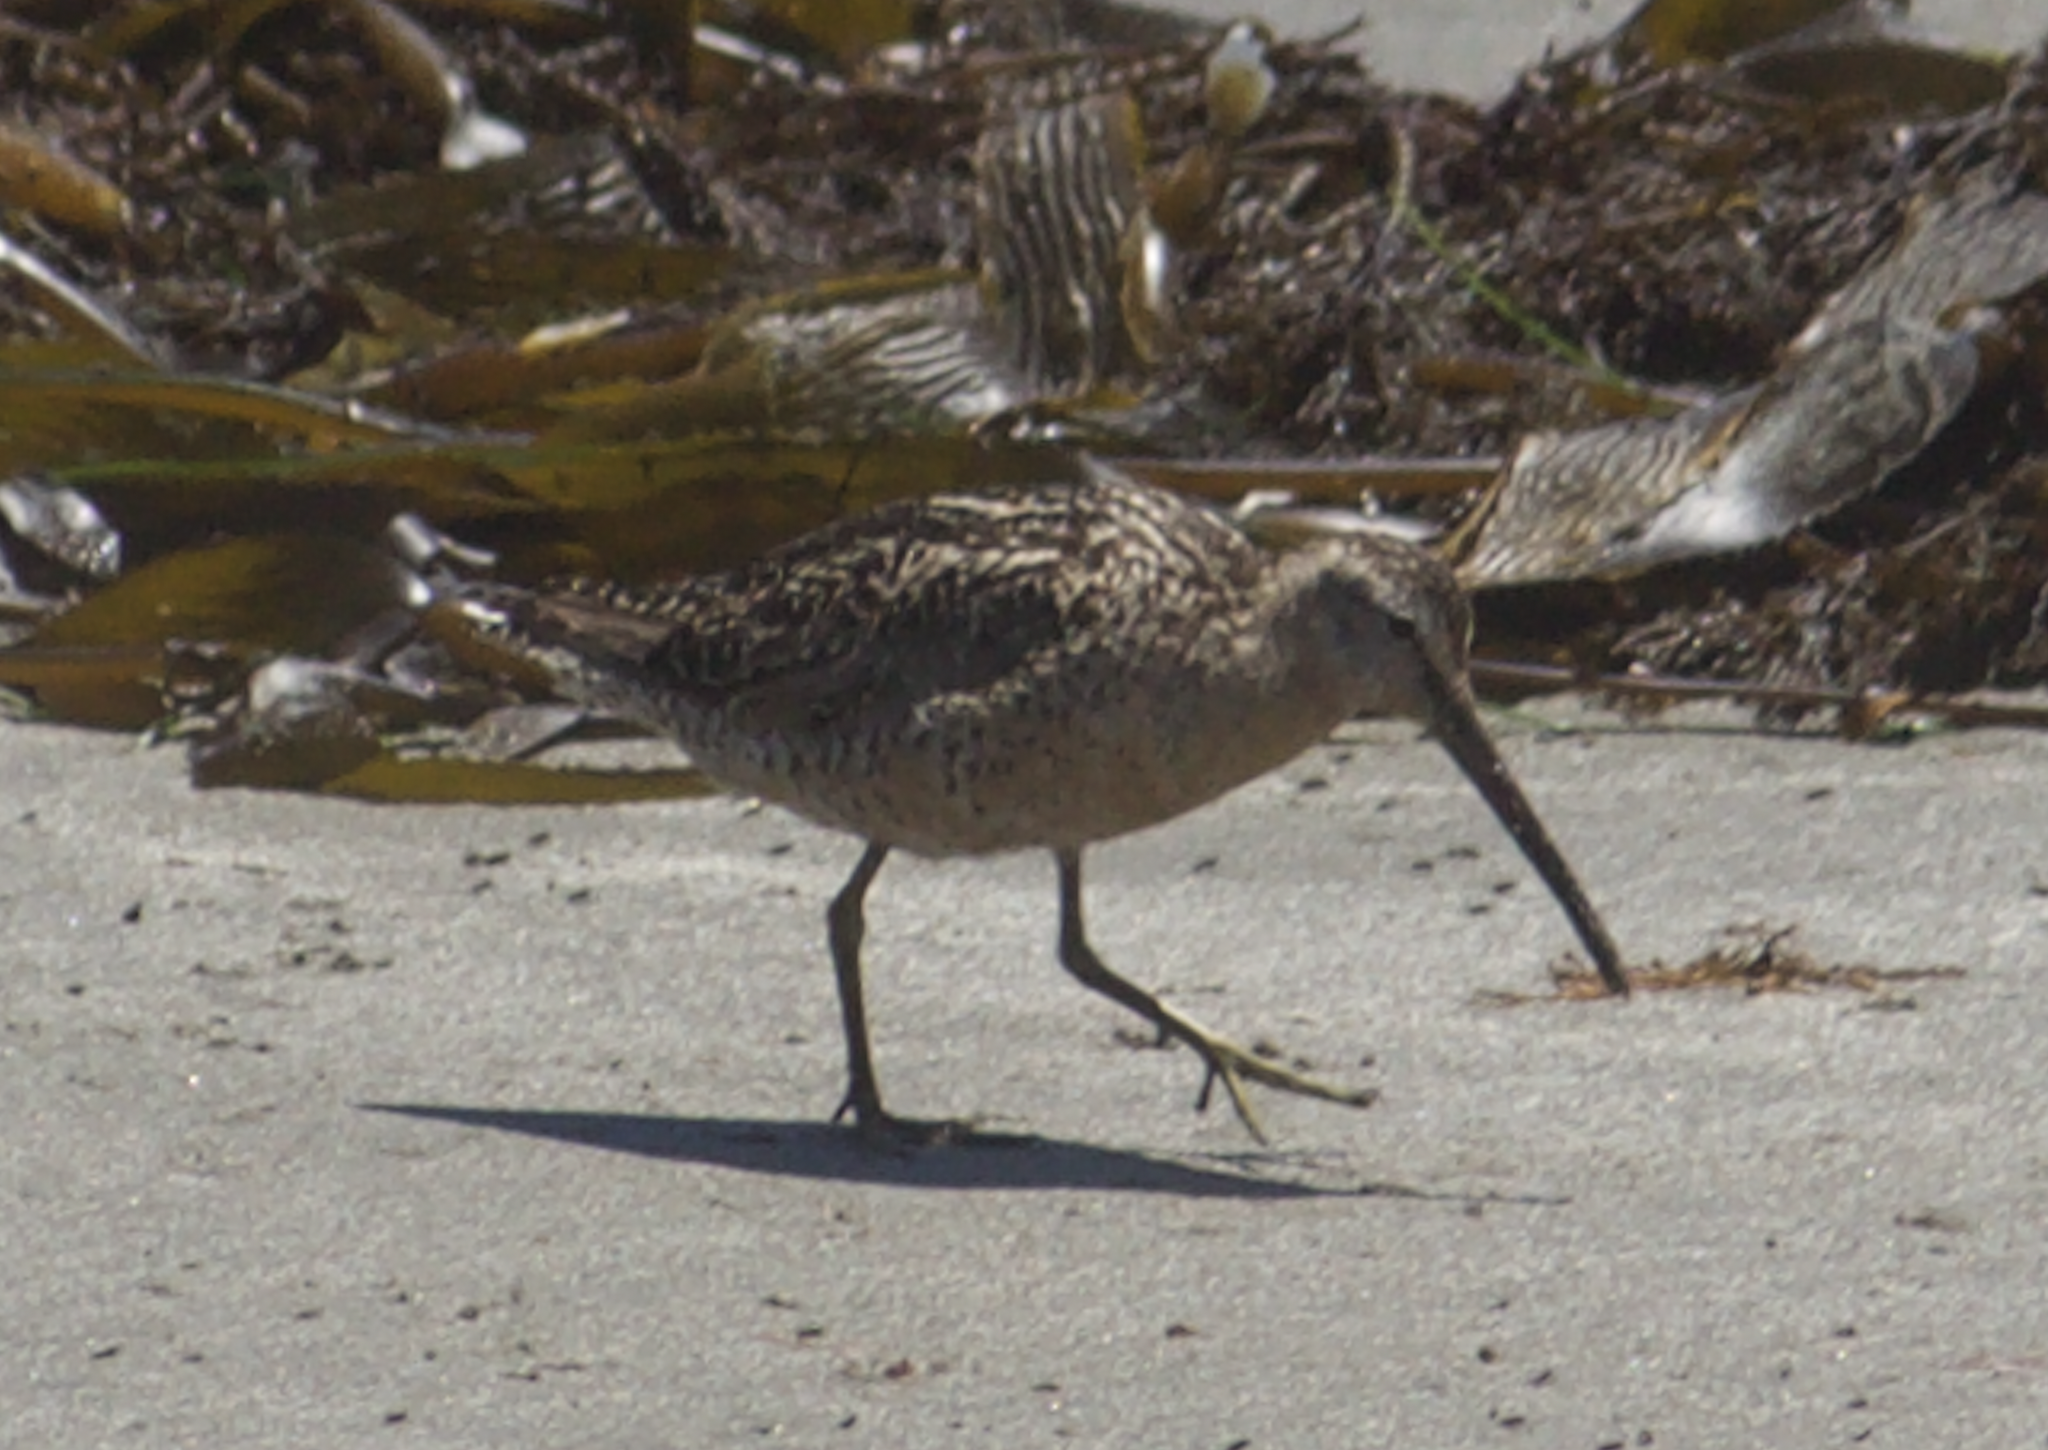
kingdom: Animalia
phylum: Chordata
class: Aves
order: Charadriiformes
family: Scolopacidae
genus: Limnodromus
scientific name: Limnodromus griseus
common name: Short-billed dowitcher
